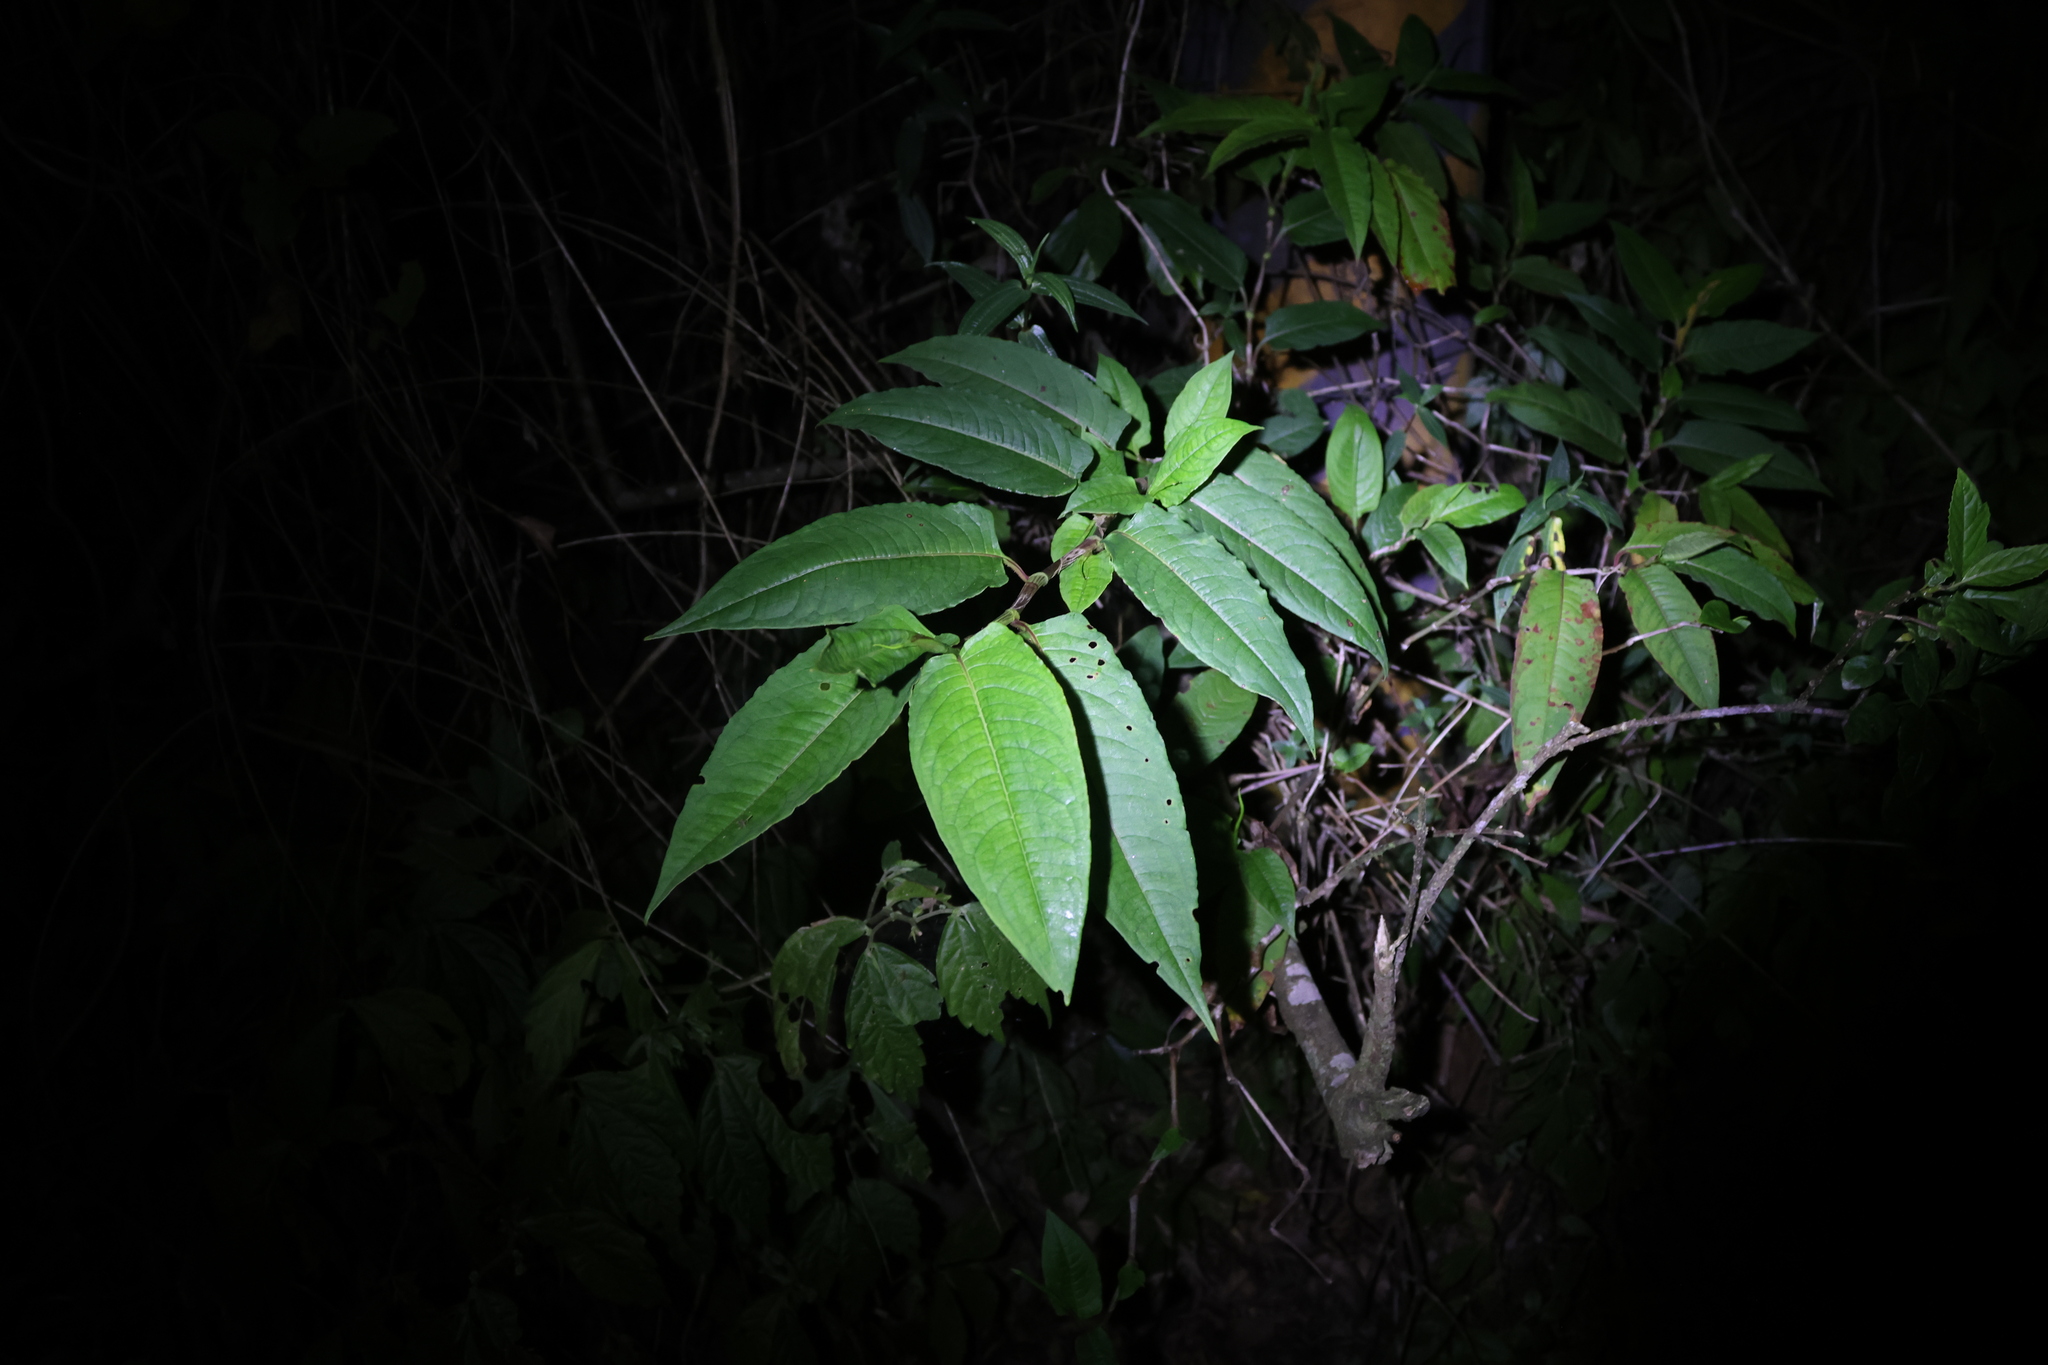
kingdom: Plantae
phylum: Tracheophyta
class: Magnoliopsida
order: Caryophyllales
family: Polygonaceae
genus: Persicaria
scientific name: Persicaria chinensis
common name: Chinese knotweed
